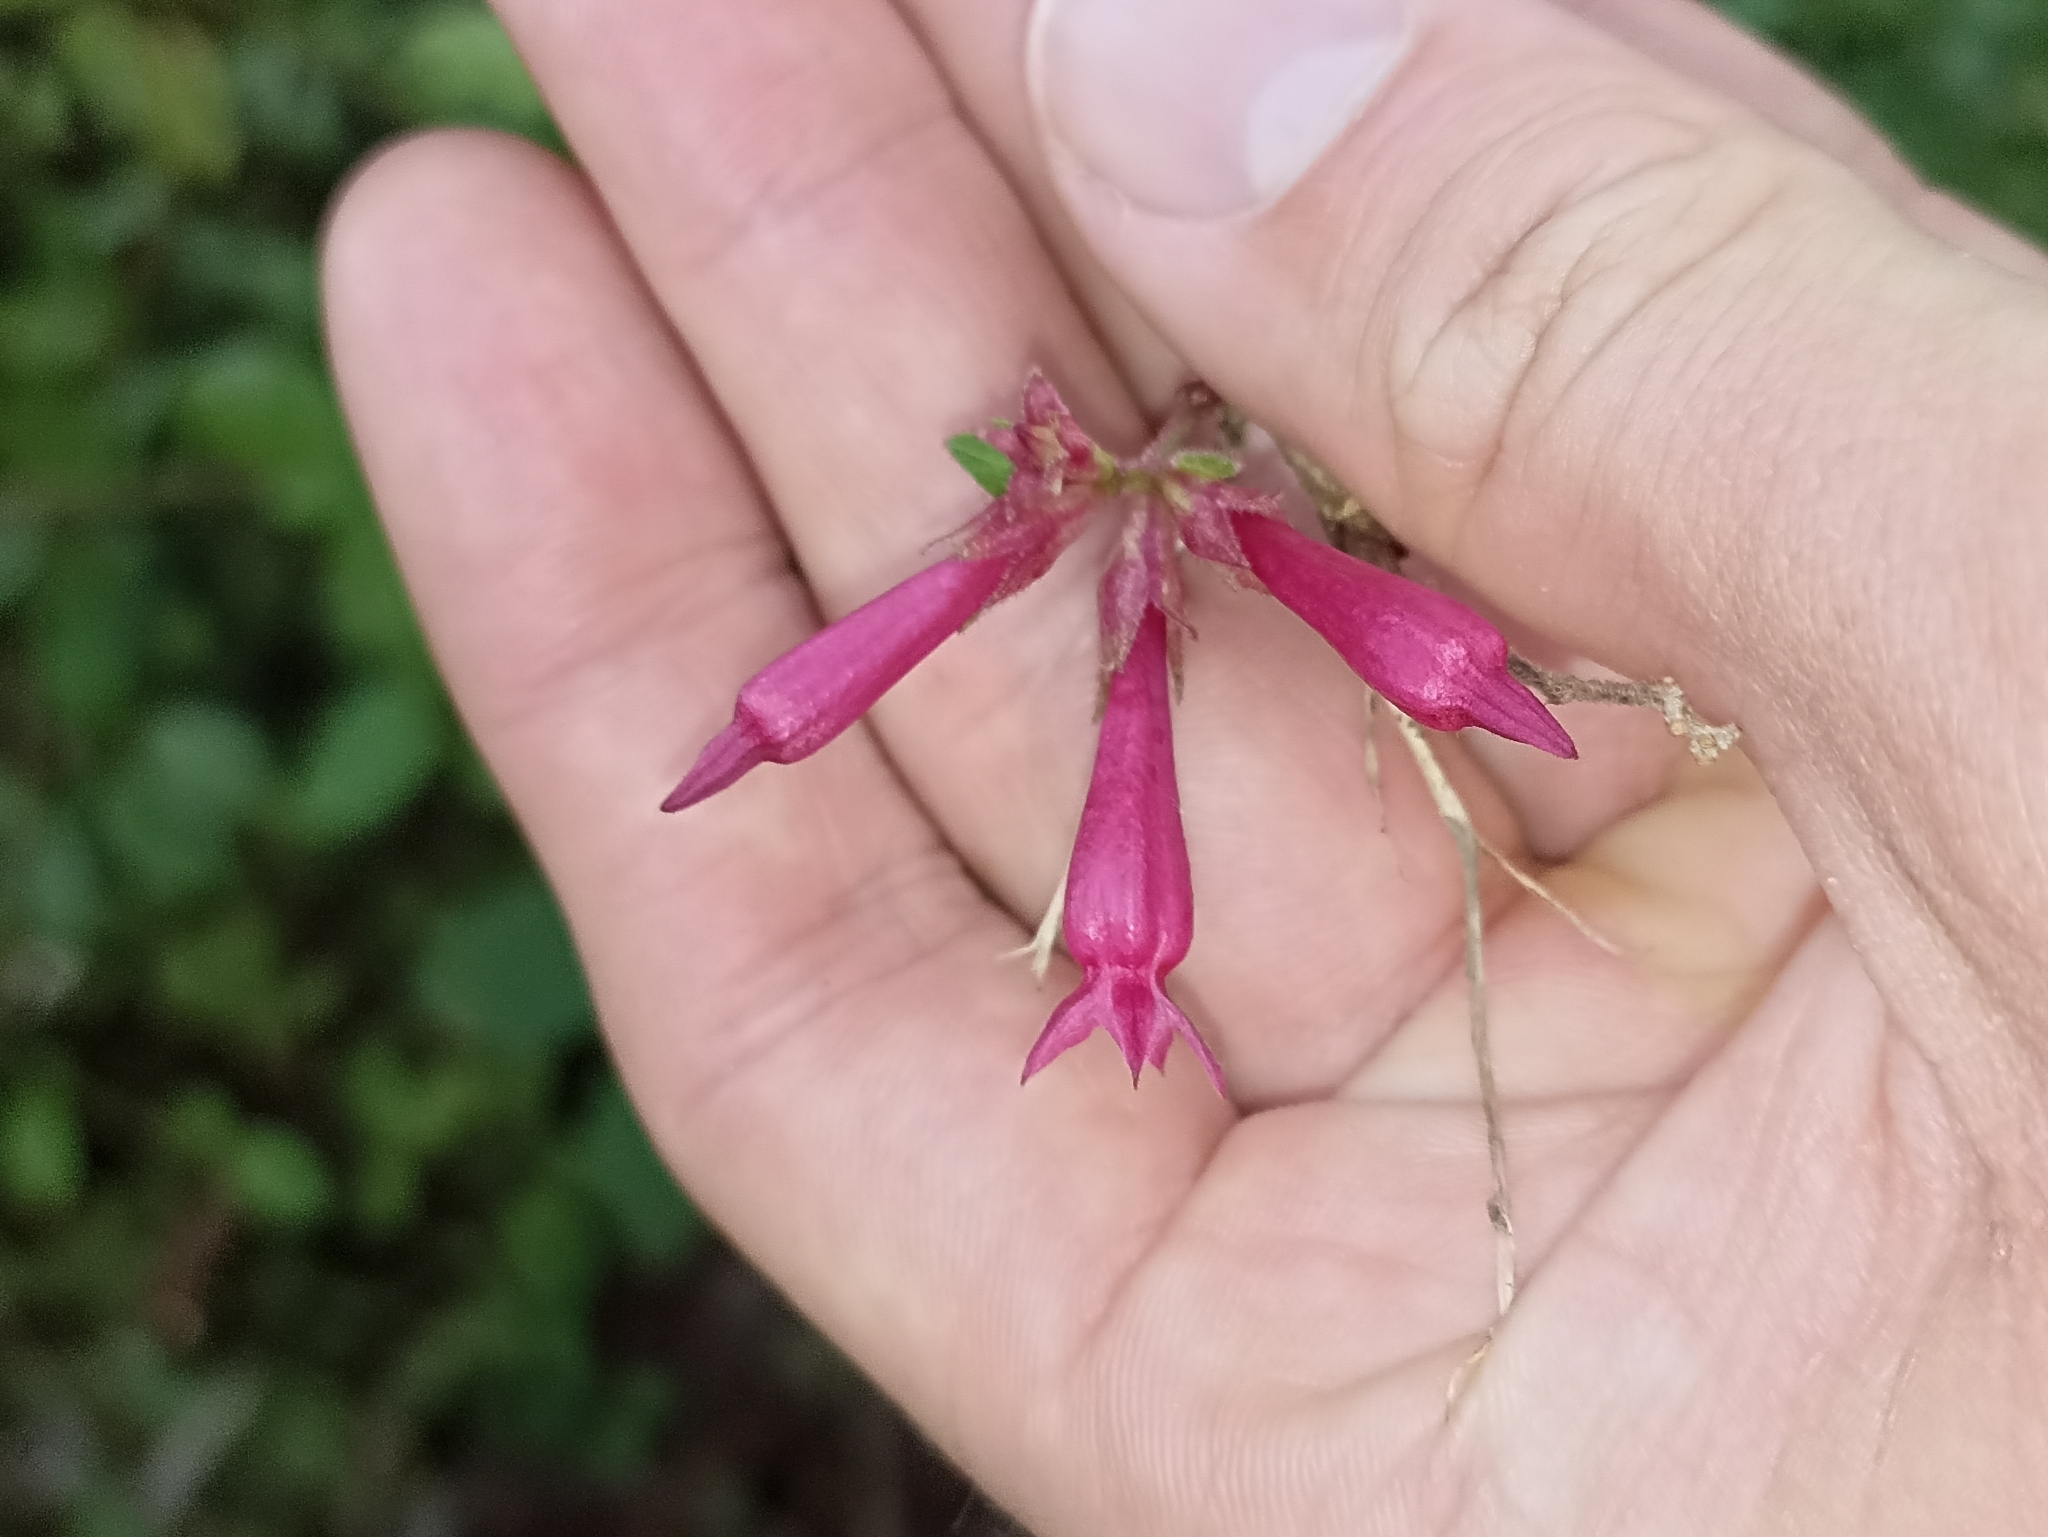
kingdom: Plantae
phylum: Tracheophyta
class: Magnoliopsida
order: Solanales
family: Solanaceae
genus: Cestrum
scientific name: Cestrum elegans
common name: Crimson cestrum
